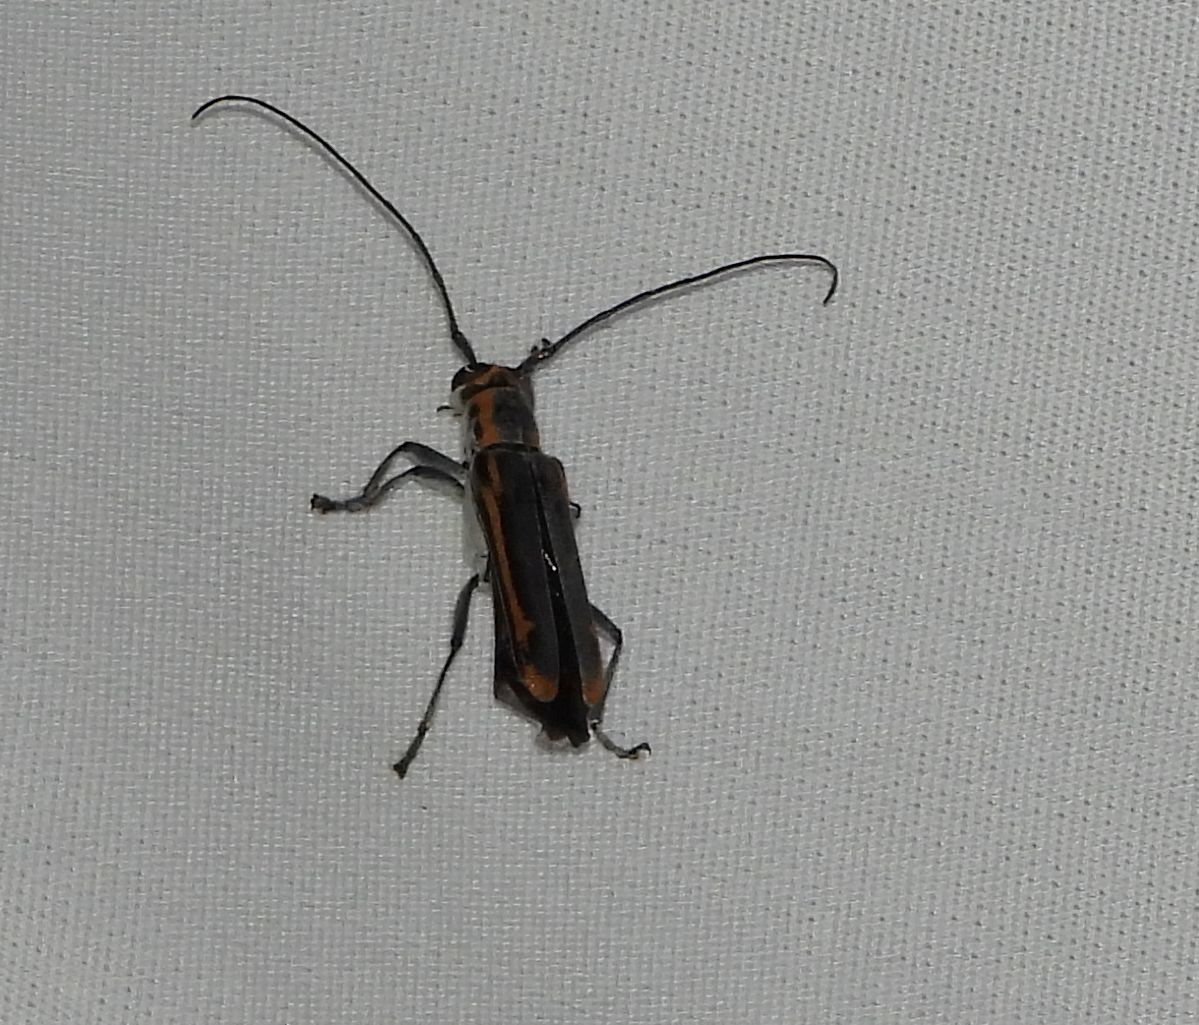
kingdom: Animalia
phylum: Arthropoda
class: Insecta
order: Coleoptera
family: Cerambycidae
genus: Saperda
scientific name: Saperda lateralis
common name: Red-edged saperda
